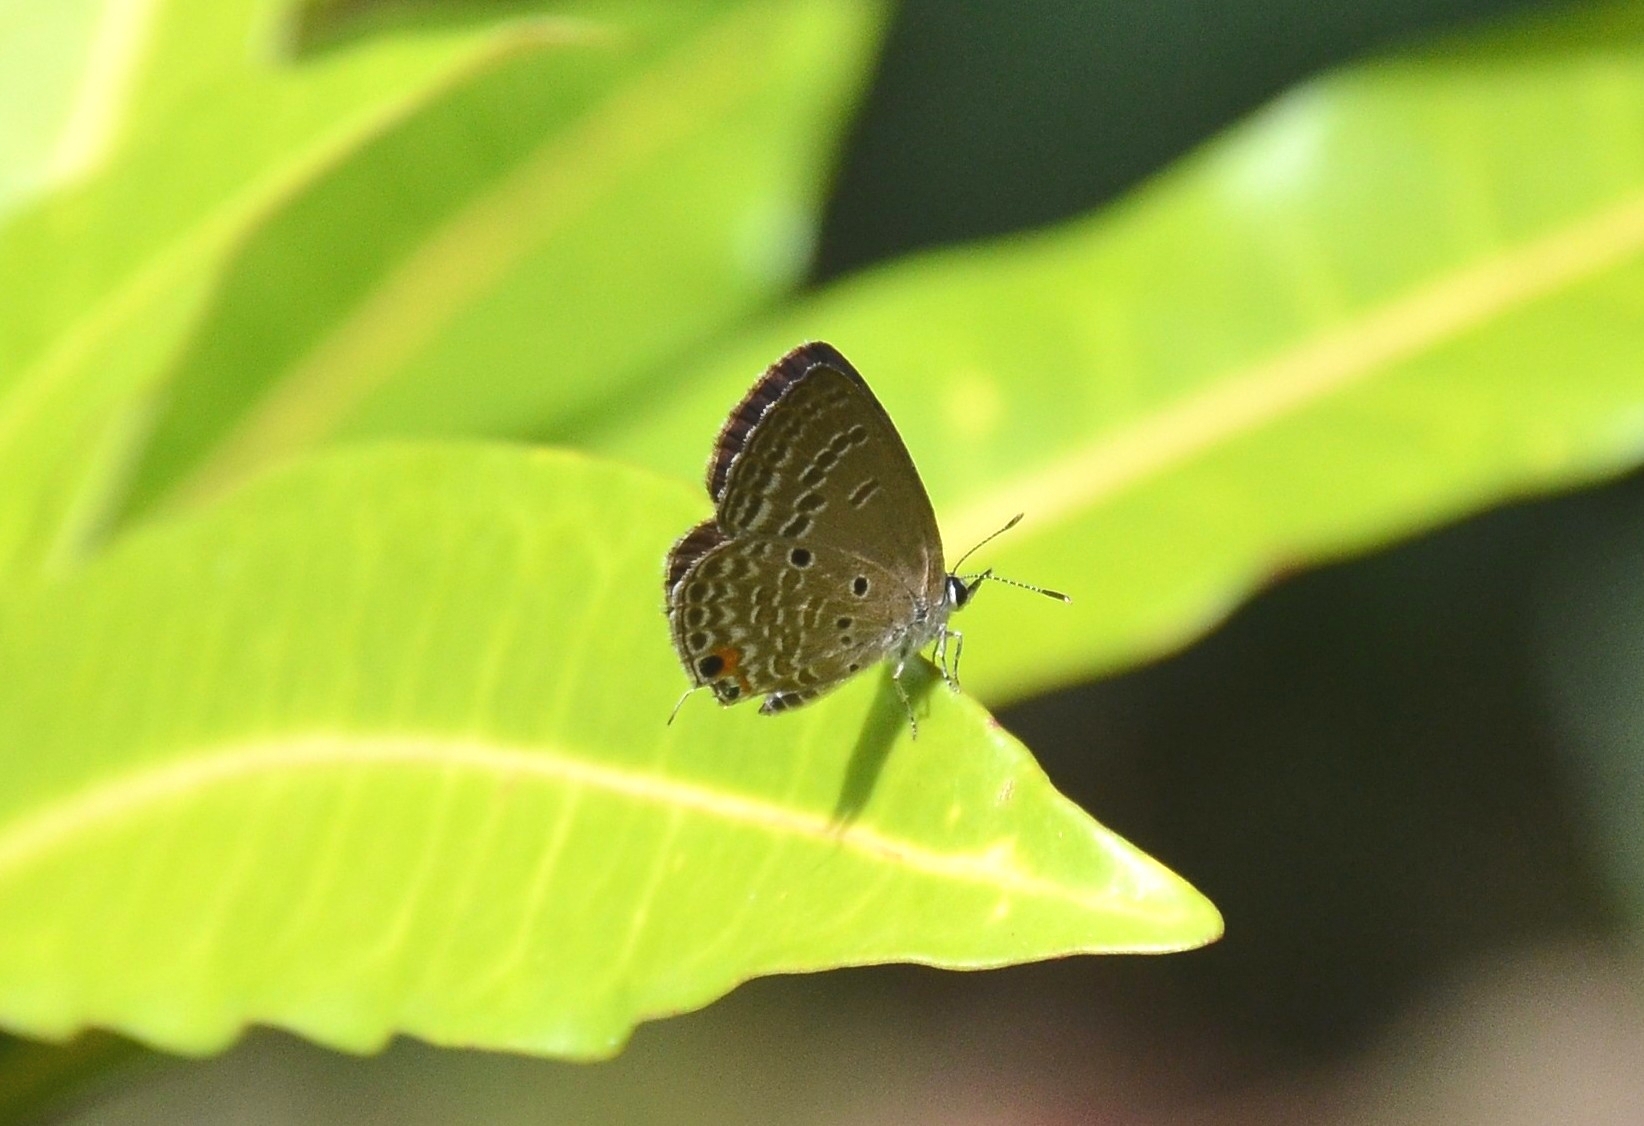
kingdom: Animalia
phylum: Arthropoda
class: Insecta
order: Lepidoptera
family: Lycaenidae
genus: Luthrodes
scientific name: Luthrodes pandava
